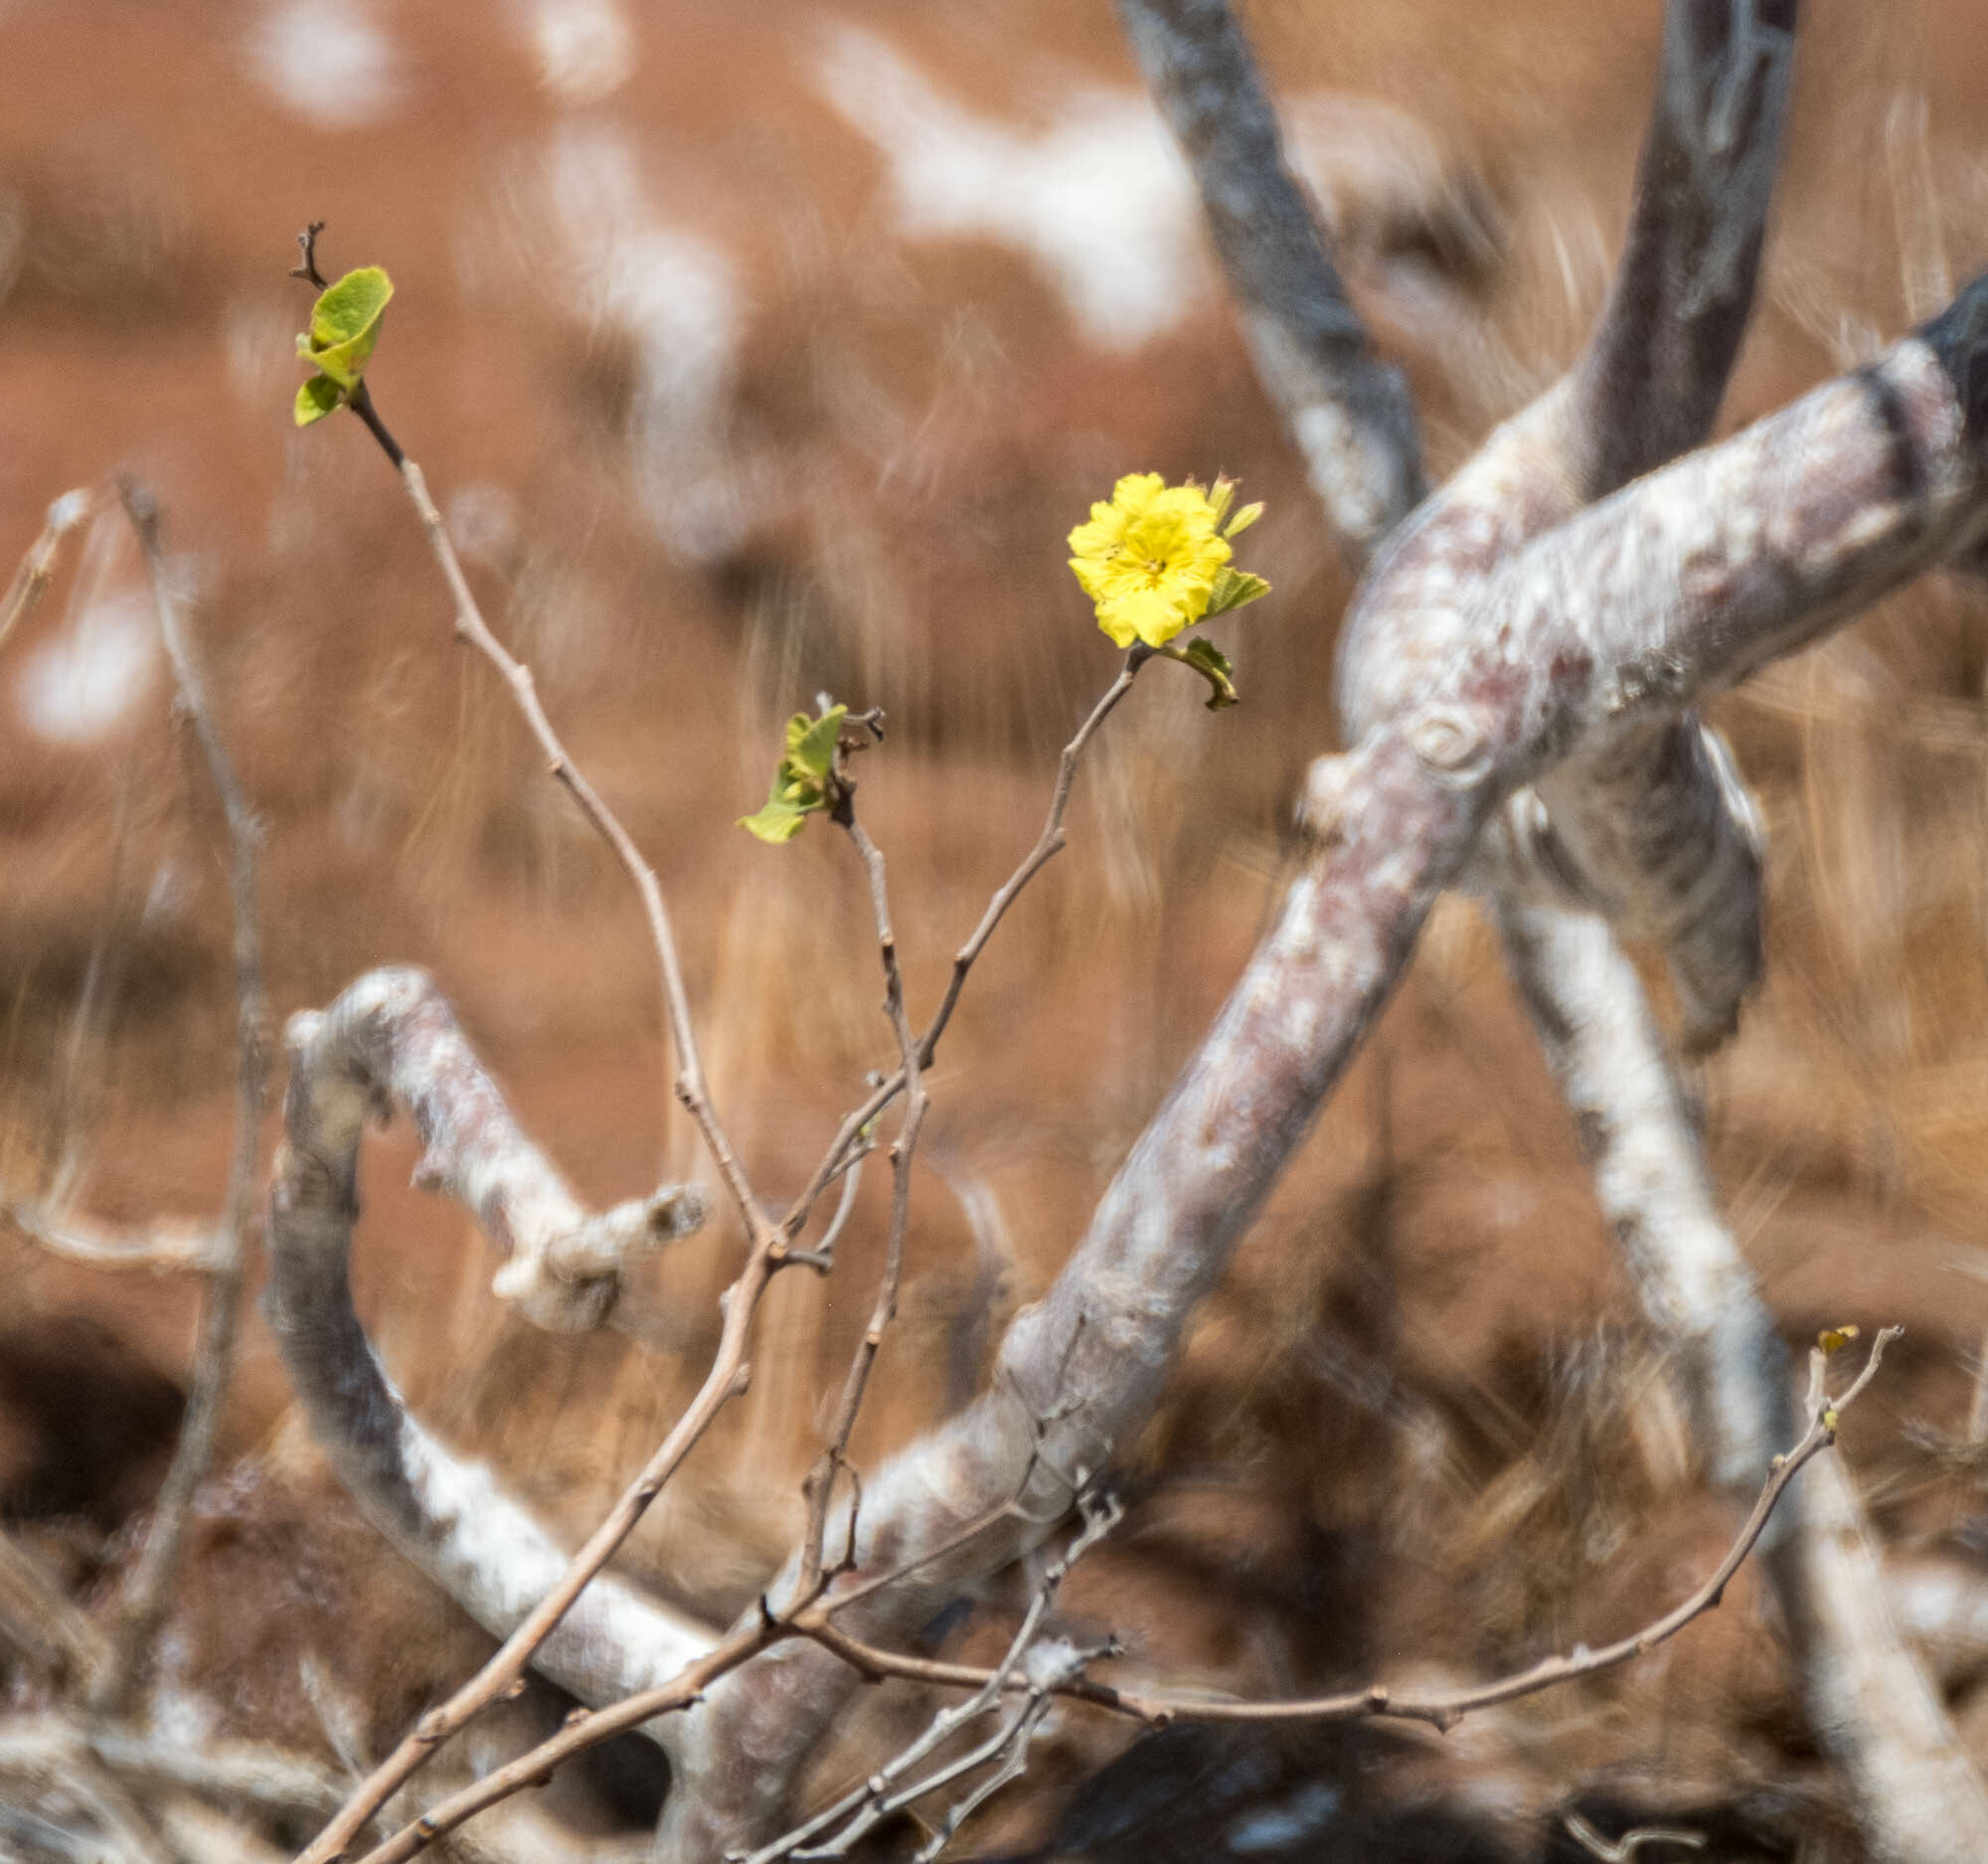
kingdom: Plantae
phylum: Tracheophyta
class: Magnoliopsida
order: Boraginales
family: Cordiaceae
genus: Cordia
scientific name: Cordia lutea
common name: Yellow geiger
